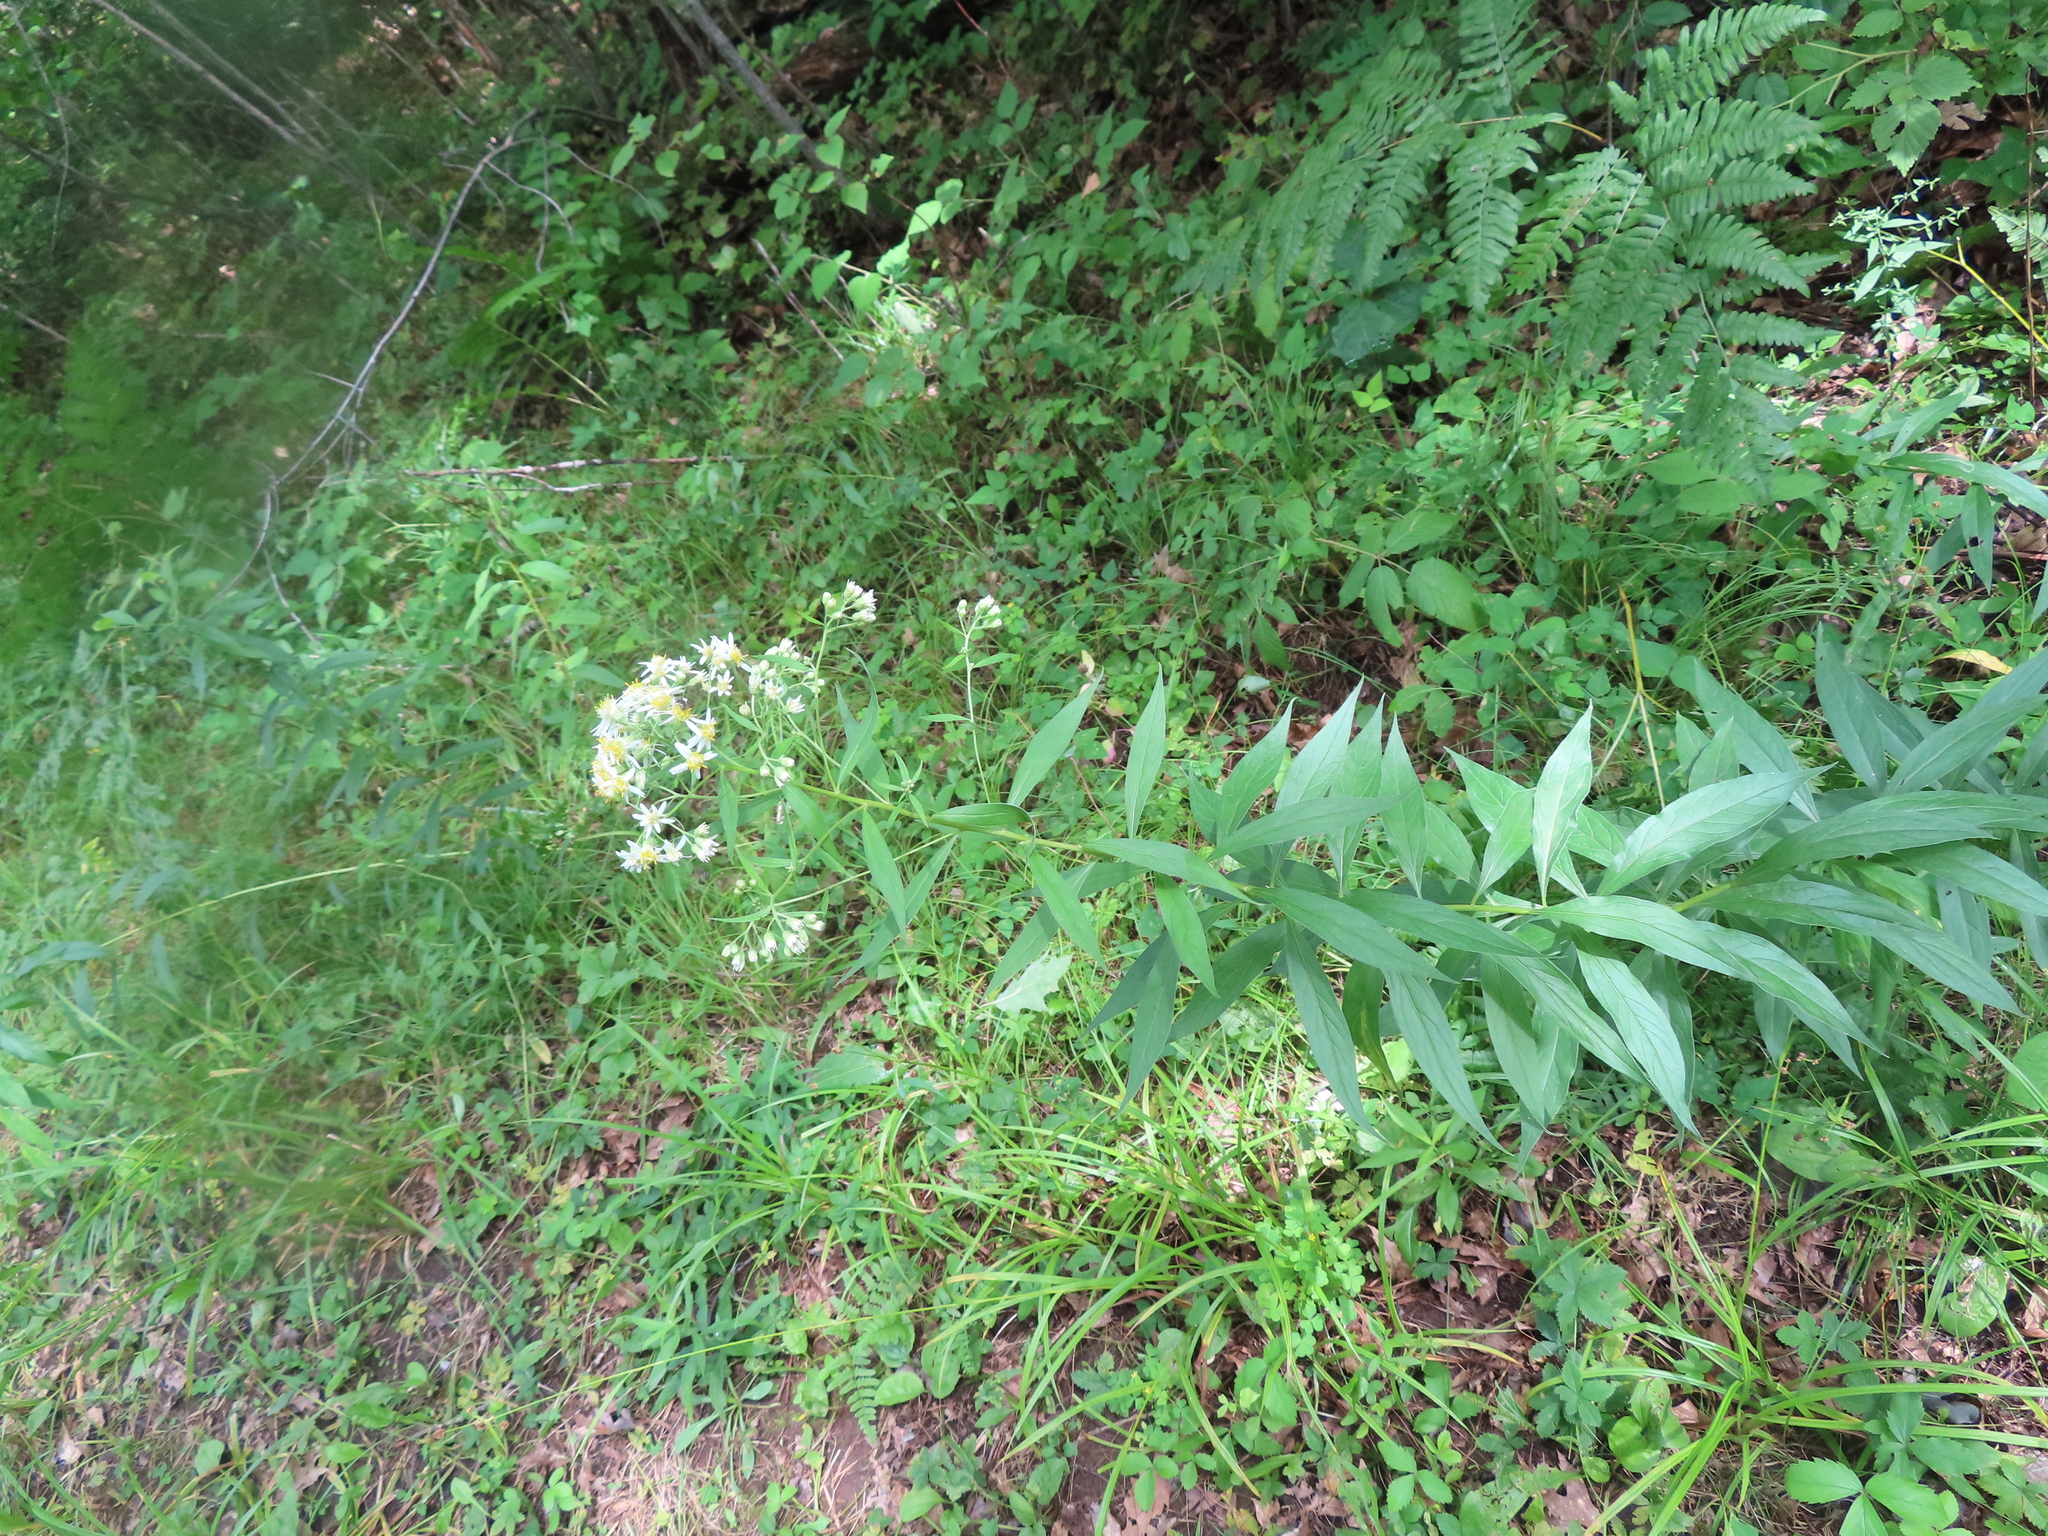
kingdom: Plantae
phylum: Tracheophyta
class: Magnoliopsida
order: Asterales
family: Asteraceae
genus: Doellingeria
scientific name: Doellingeria umbellata
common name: Flat-top white aster
